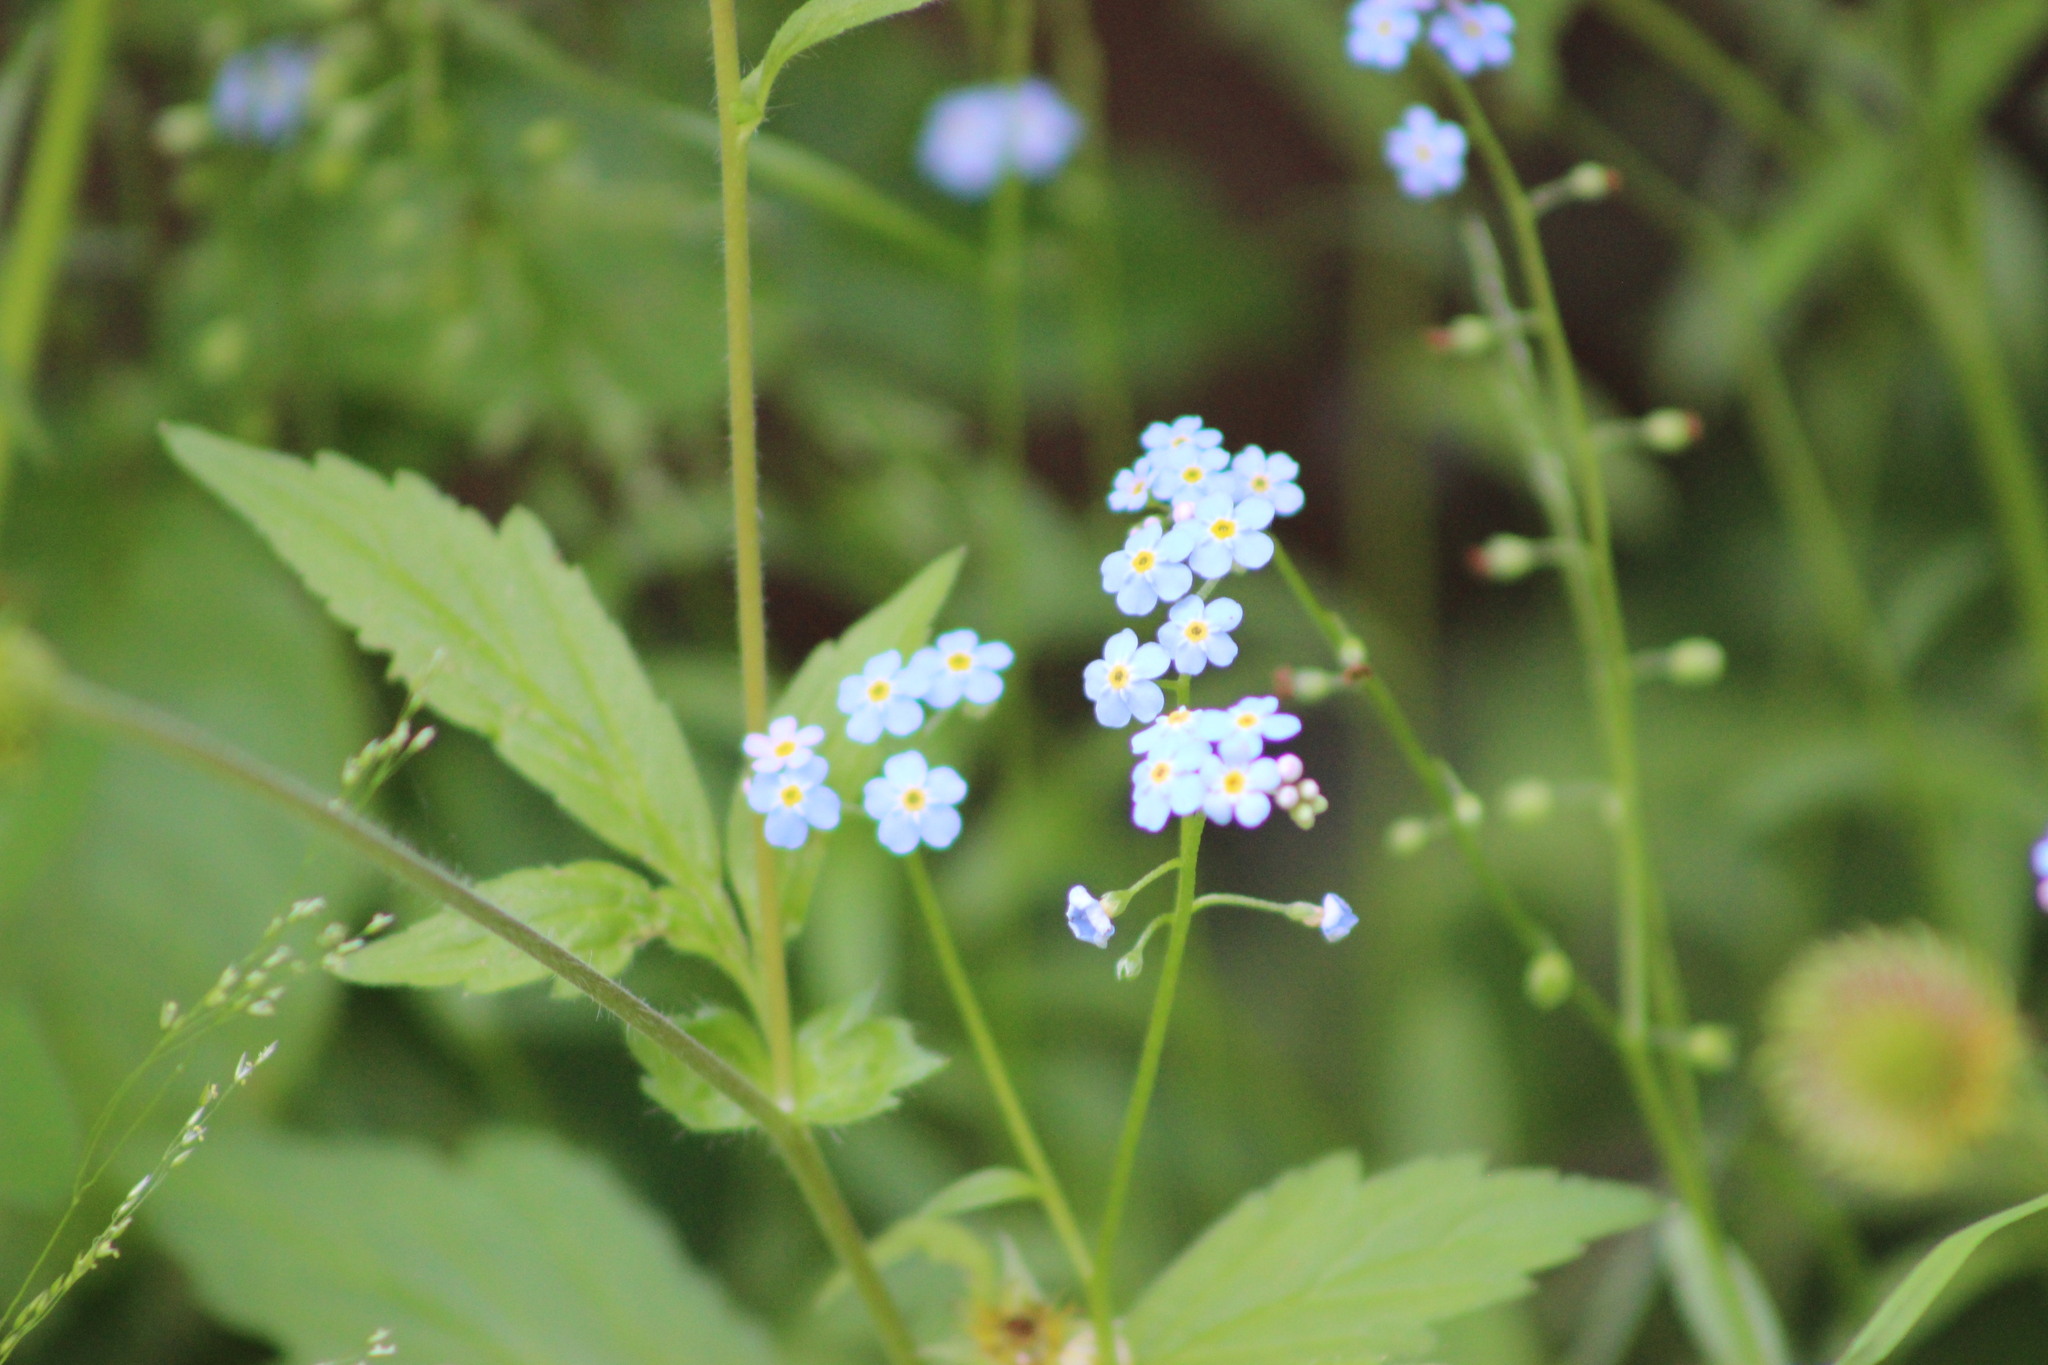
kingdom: Plantae
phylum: Tracheophyta
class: Magnoliopsida
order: Boraginales
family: Boraginaceae
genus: Myosotis
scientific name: Myosotis scorpioides
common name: Water forget-me-not
